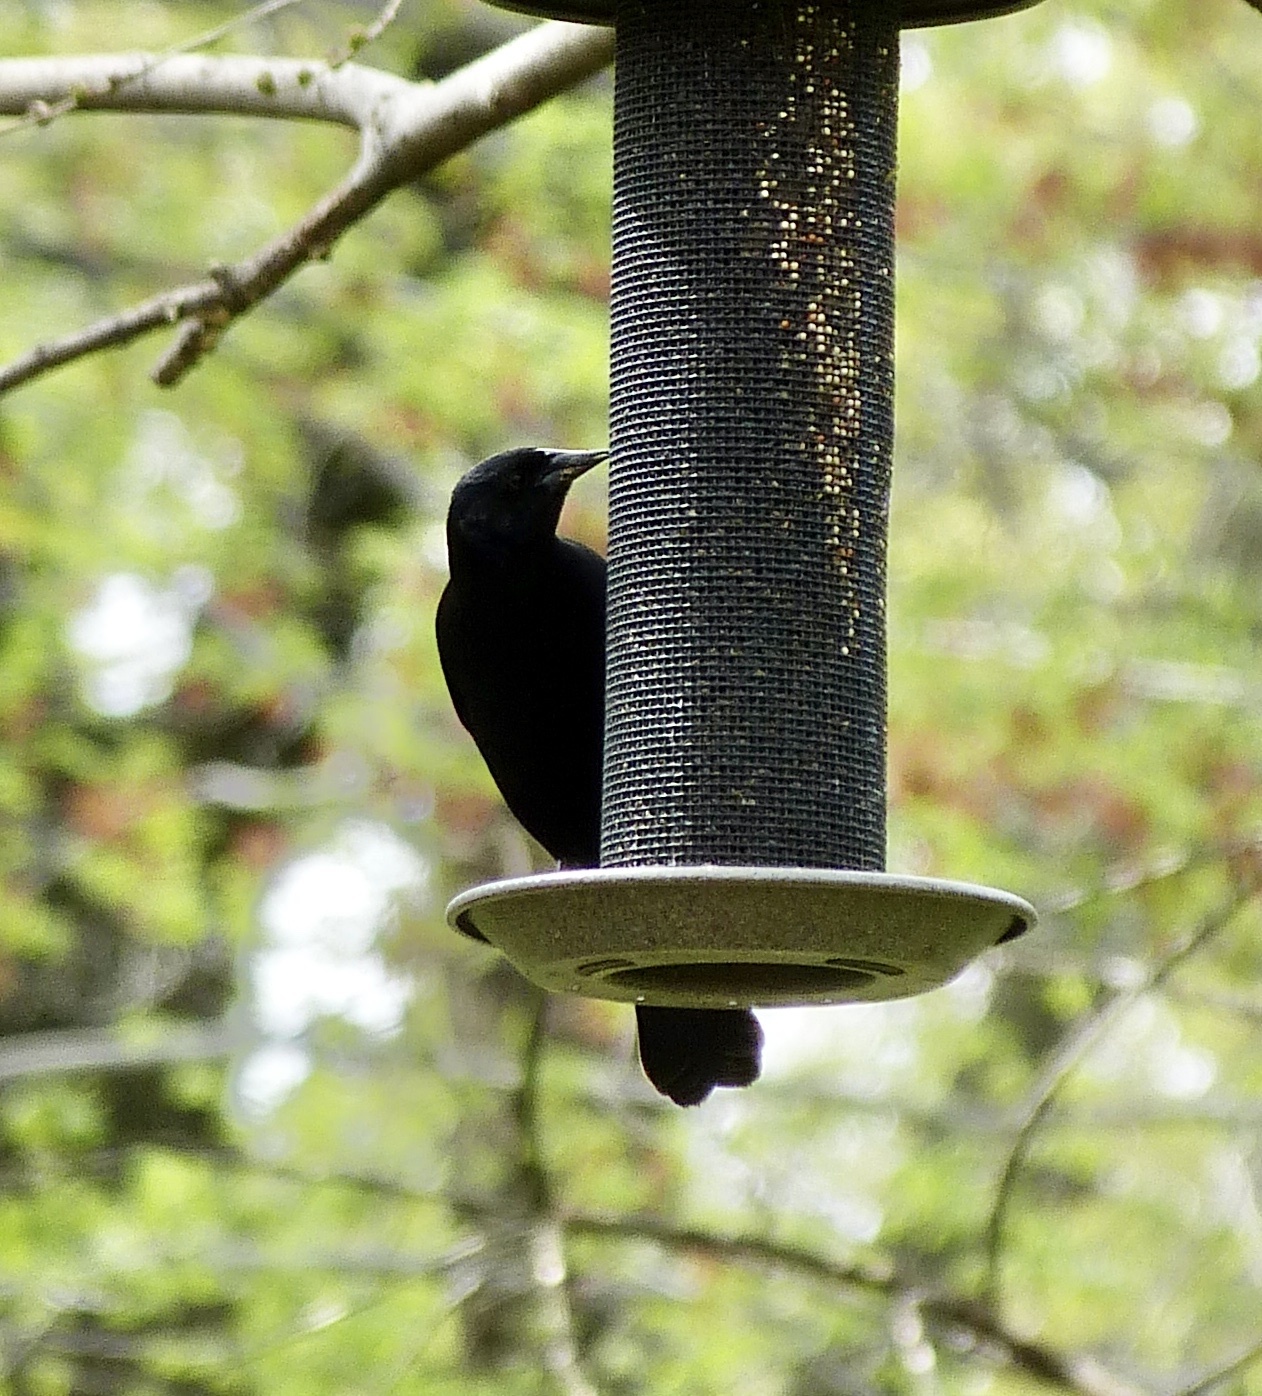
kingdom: Animalia
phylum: Chordata
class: Aves
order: Passeriformes
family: Icteridae
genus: Agelaius
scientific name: Agelaius phoeniceus
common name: Red-winged blackbird
